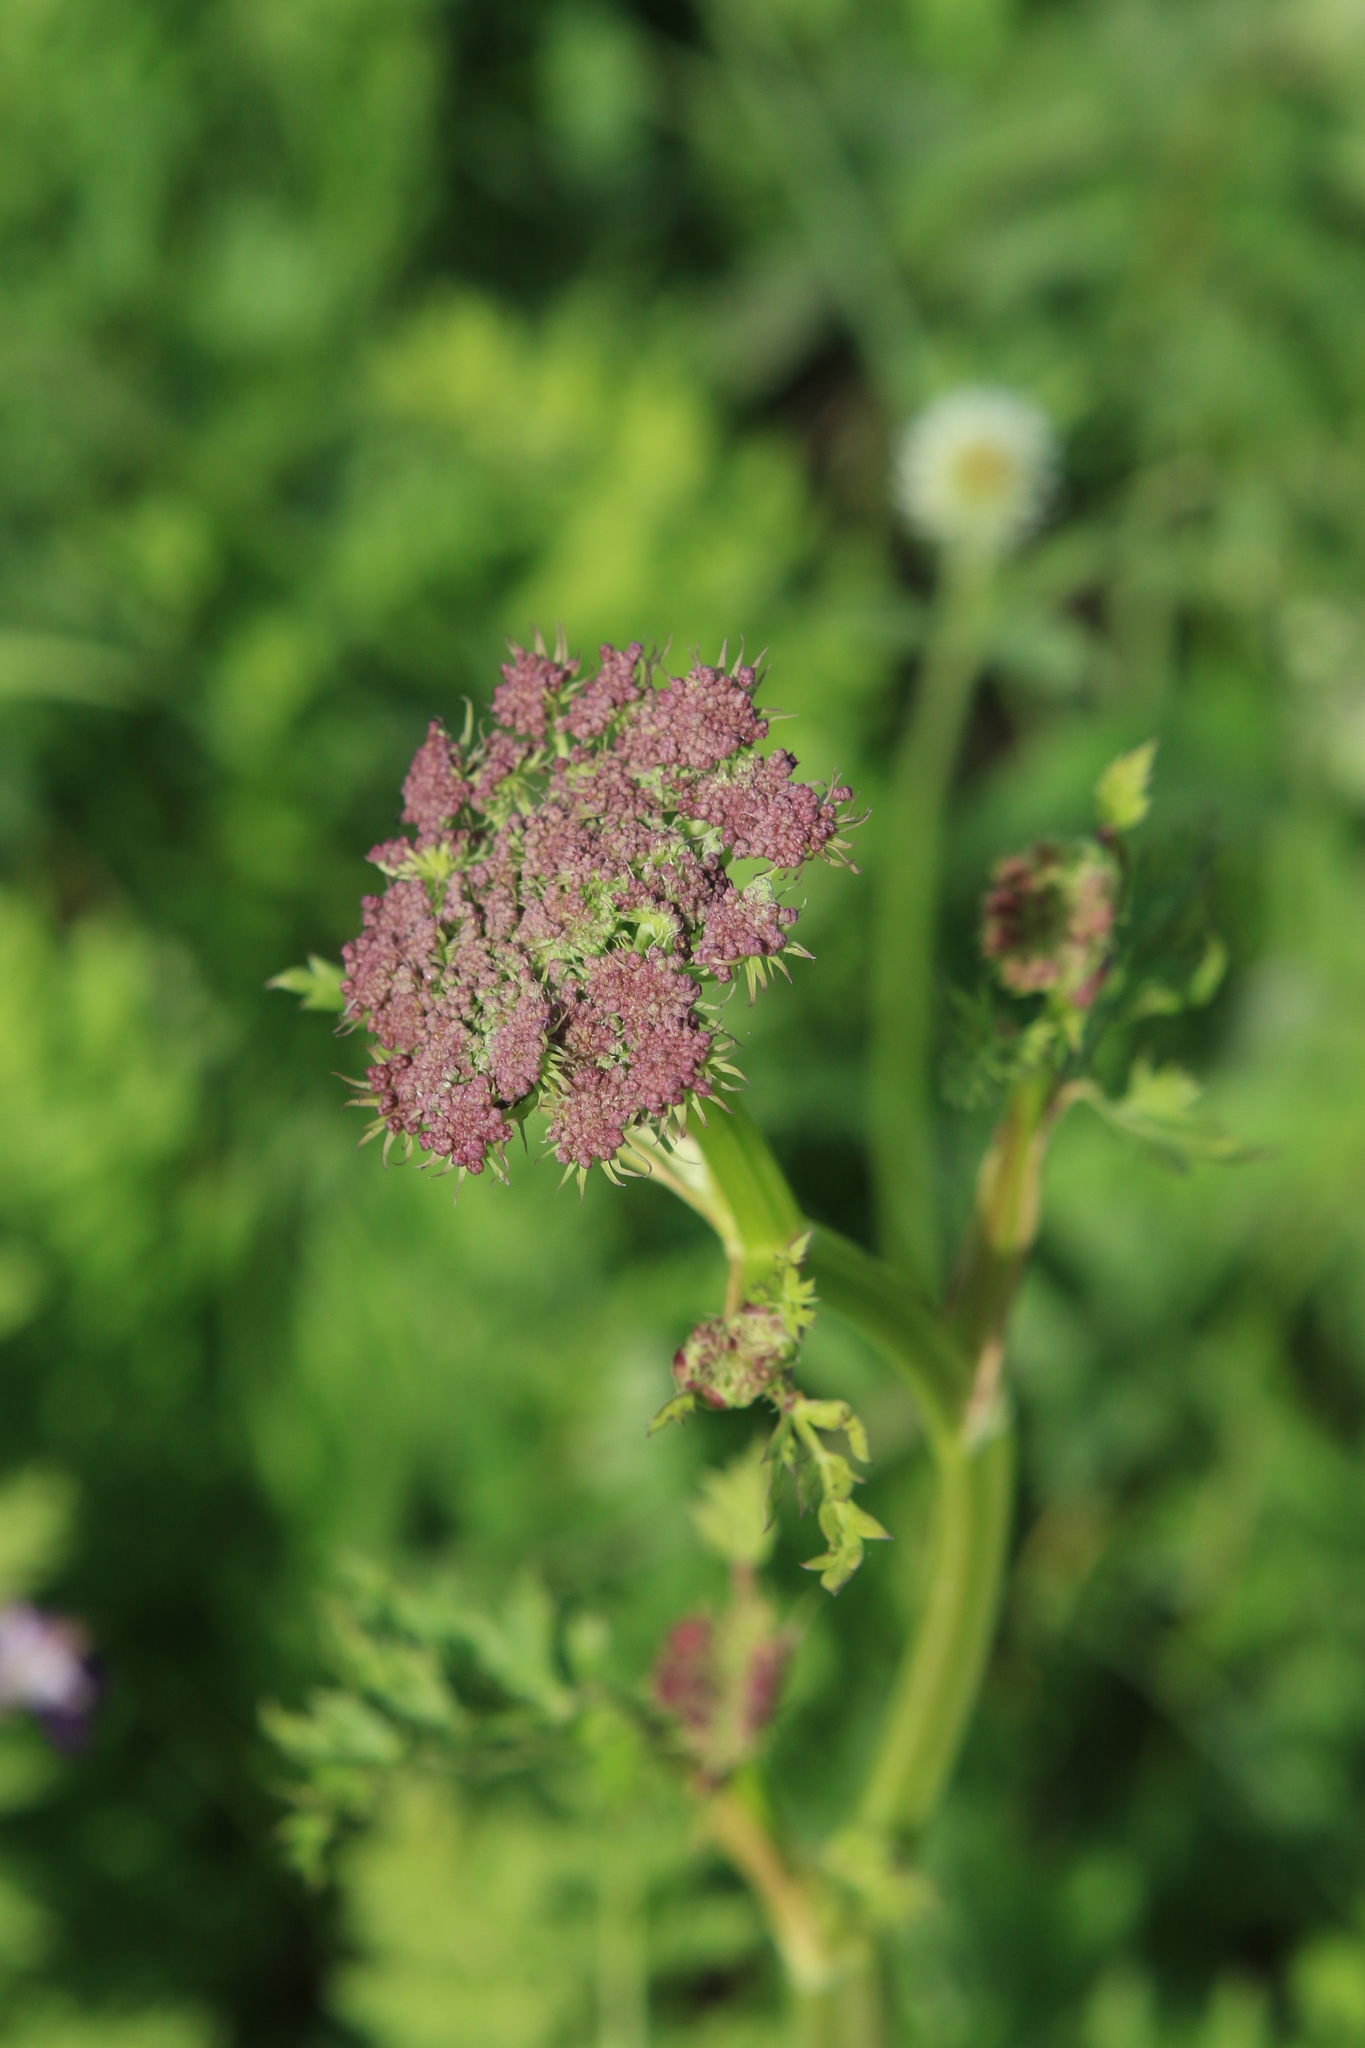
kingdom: Plantae
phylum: Tracheophyta
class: Magnoliopsida
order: Apiales
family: Apiaceae
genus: Seseli
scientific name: Seseli libanotis
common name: Mooncarrot
